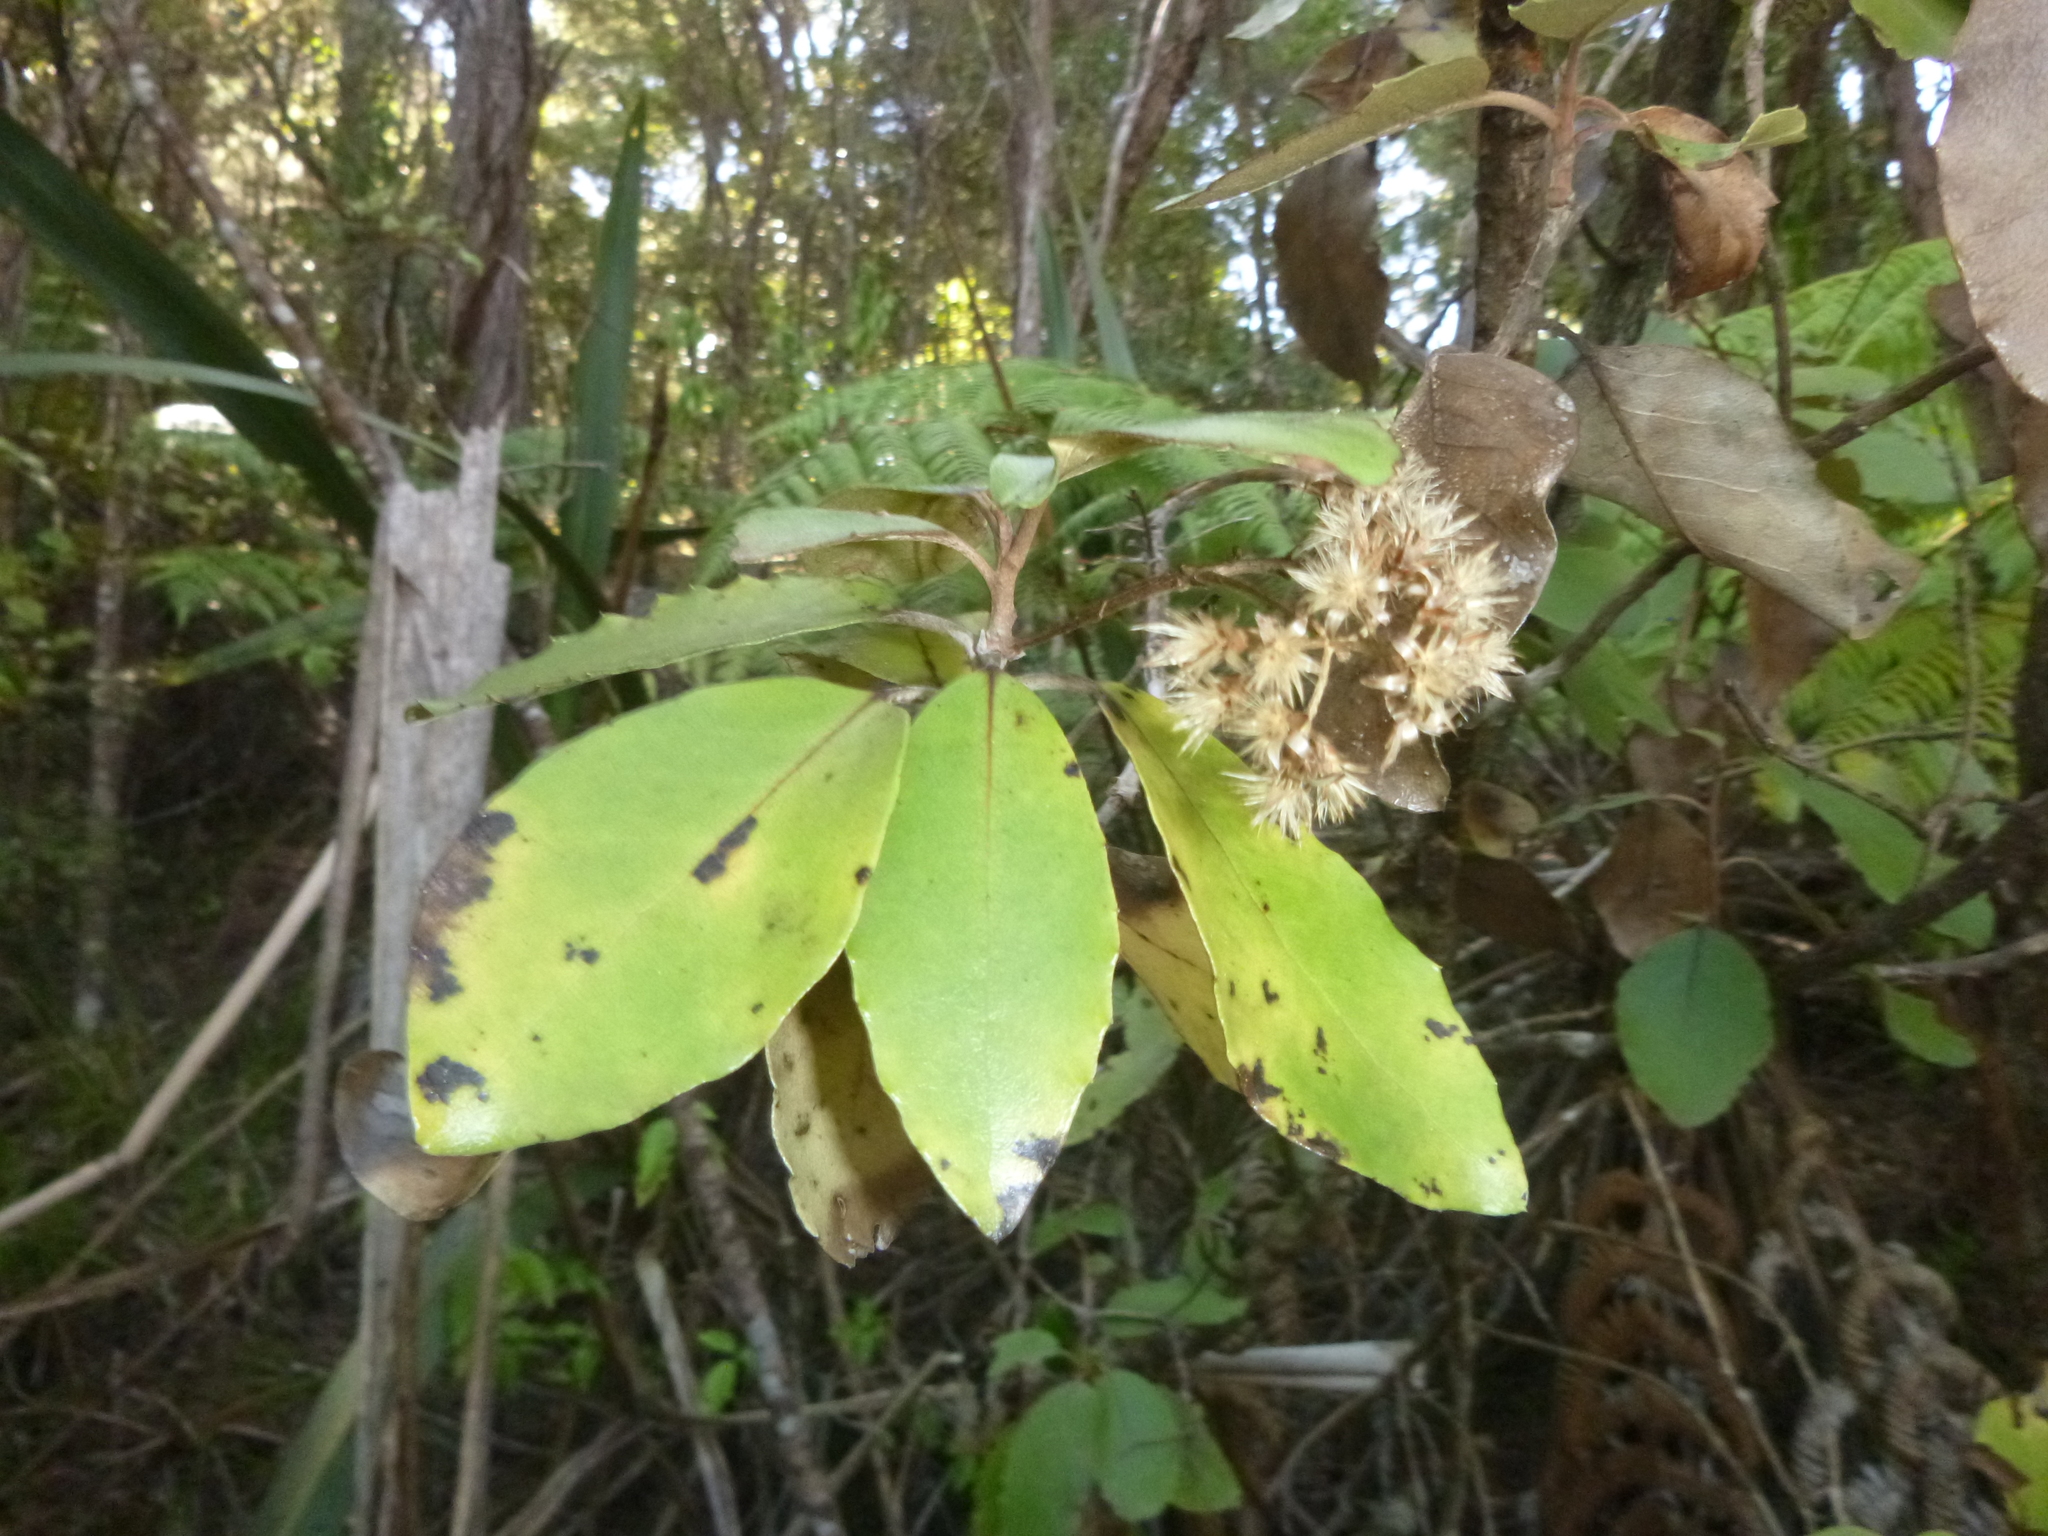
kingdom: Plantae
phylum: Tracheophyta
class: Magnoliopsida
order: Asterales
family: Asteraceae
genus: Olearia
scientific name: Olearia furfuracea
